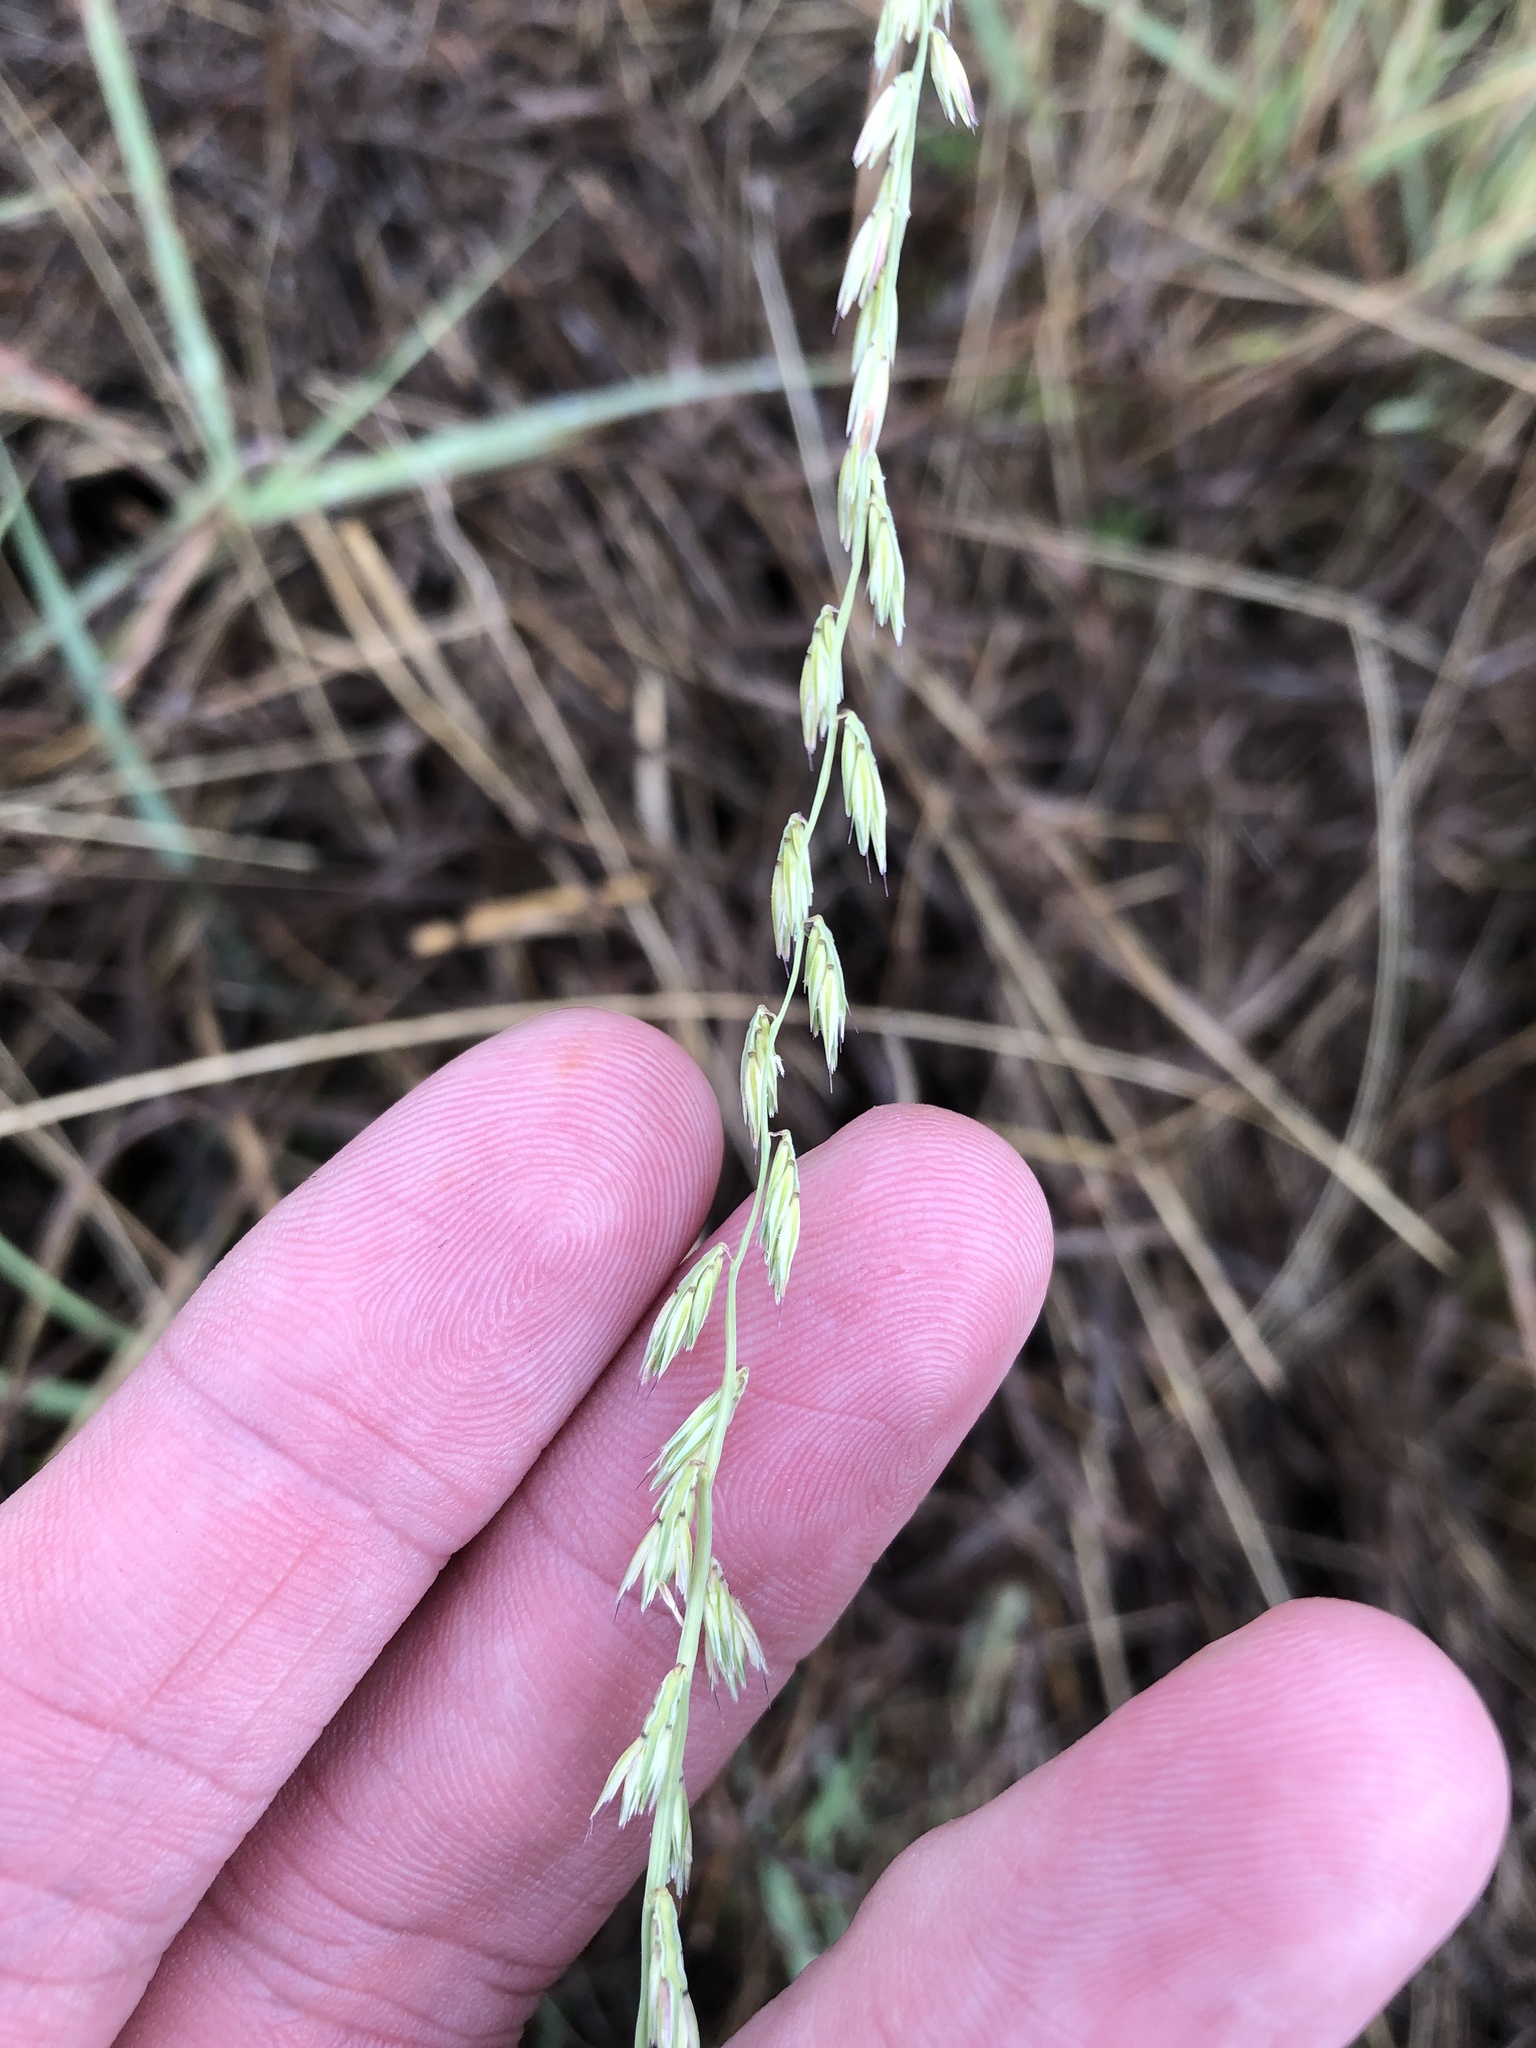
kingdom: Plantae
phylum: Tracheophyta
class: Liliopsida
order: Poales
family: Poaceae
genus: Bouteloua
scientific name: Bouteloua curtipendula
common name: Side-oats grama
